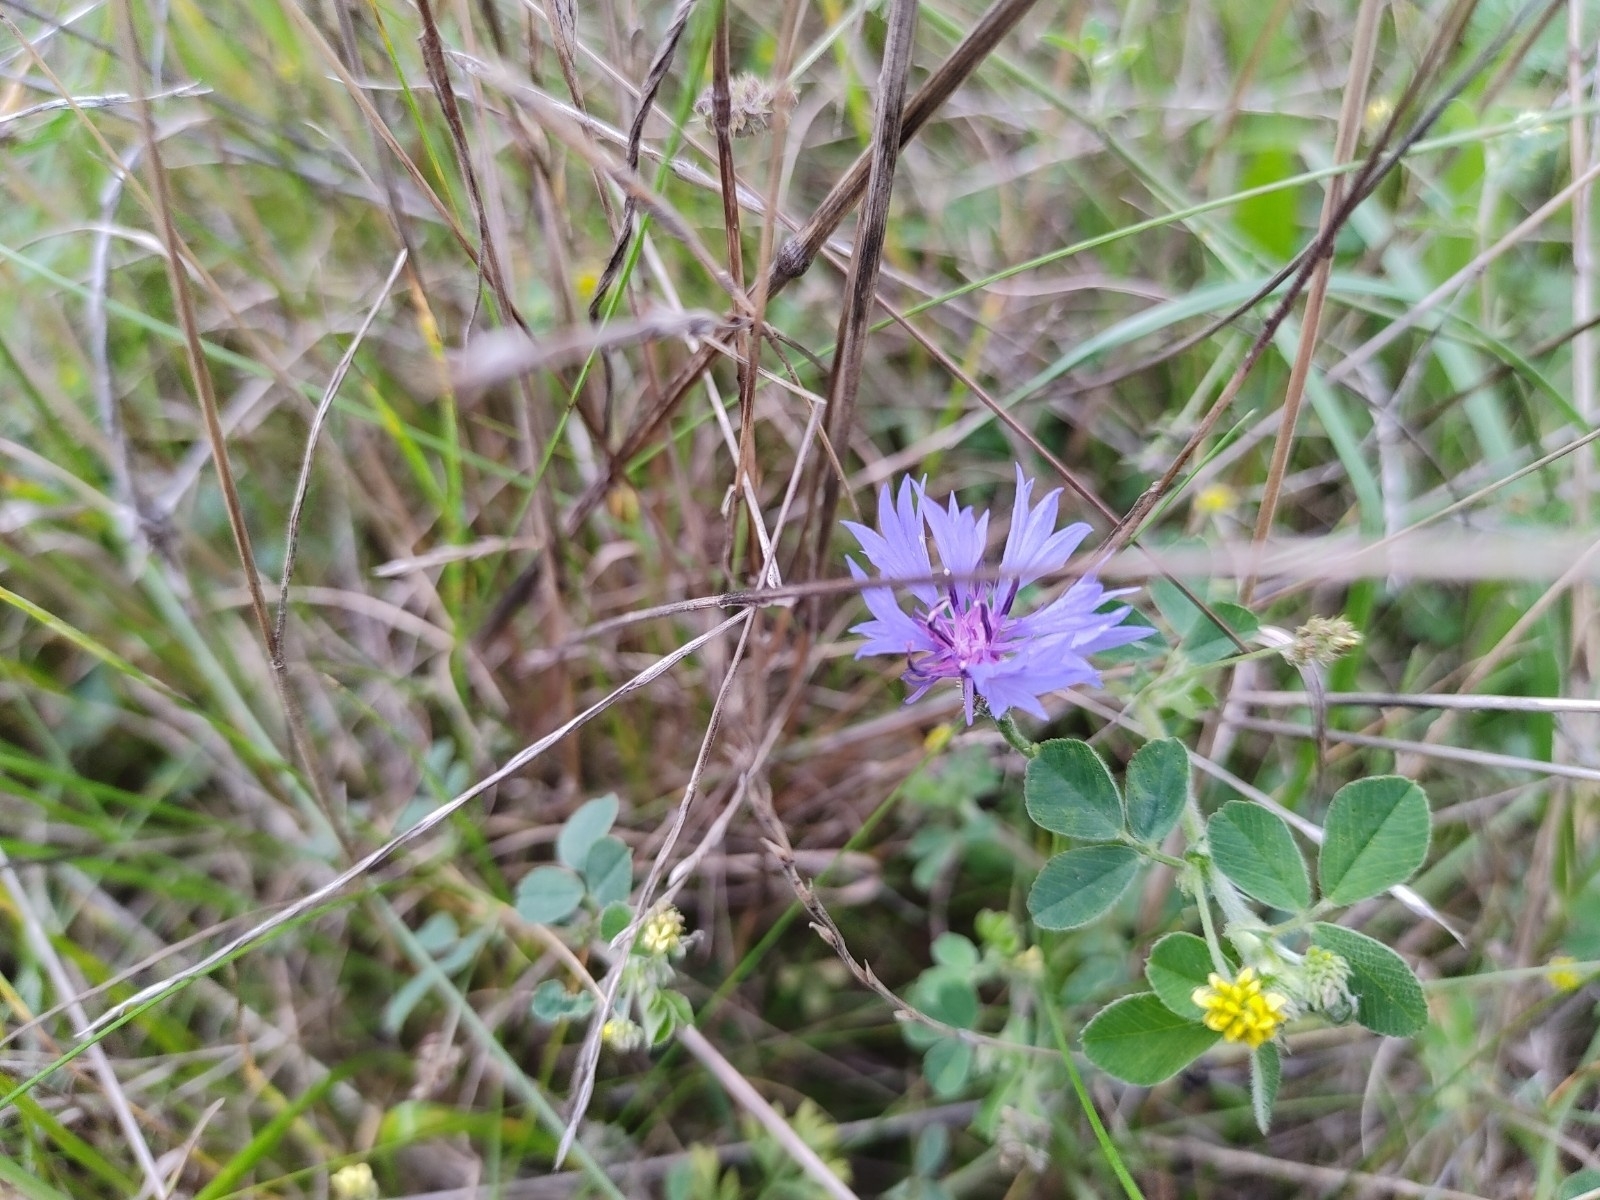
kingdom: Plantae
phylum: Tracheophyta
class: Magnoliopsida
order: Asterales
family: Asteraceae
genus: Centaurea
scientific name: Centaurea cyanus
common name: Cornflower
